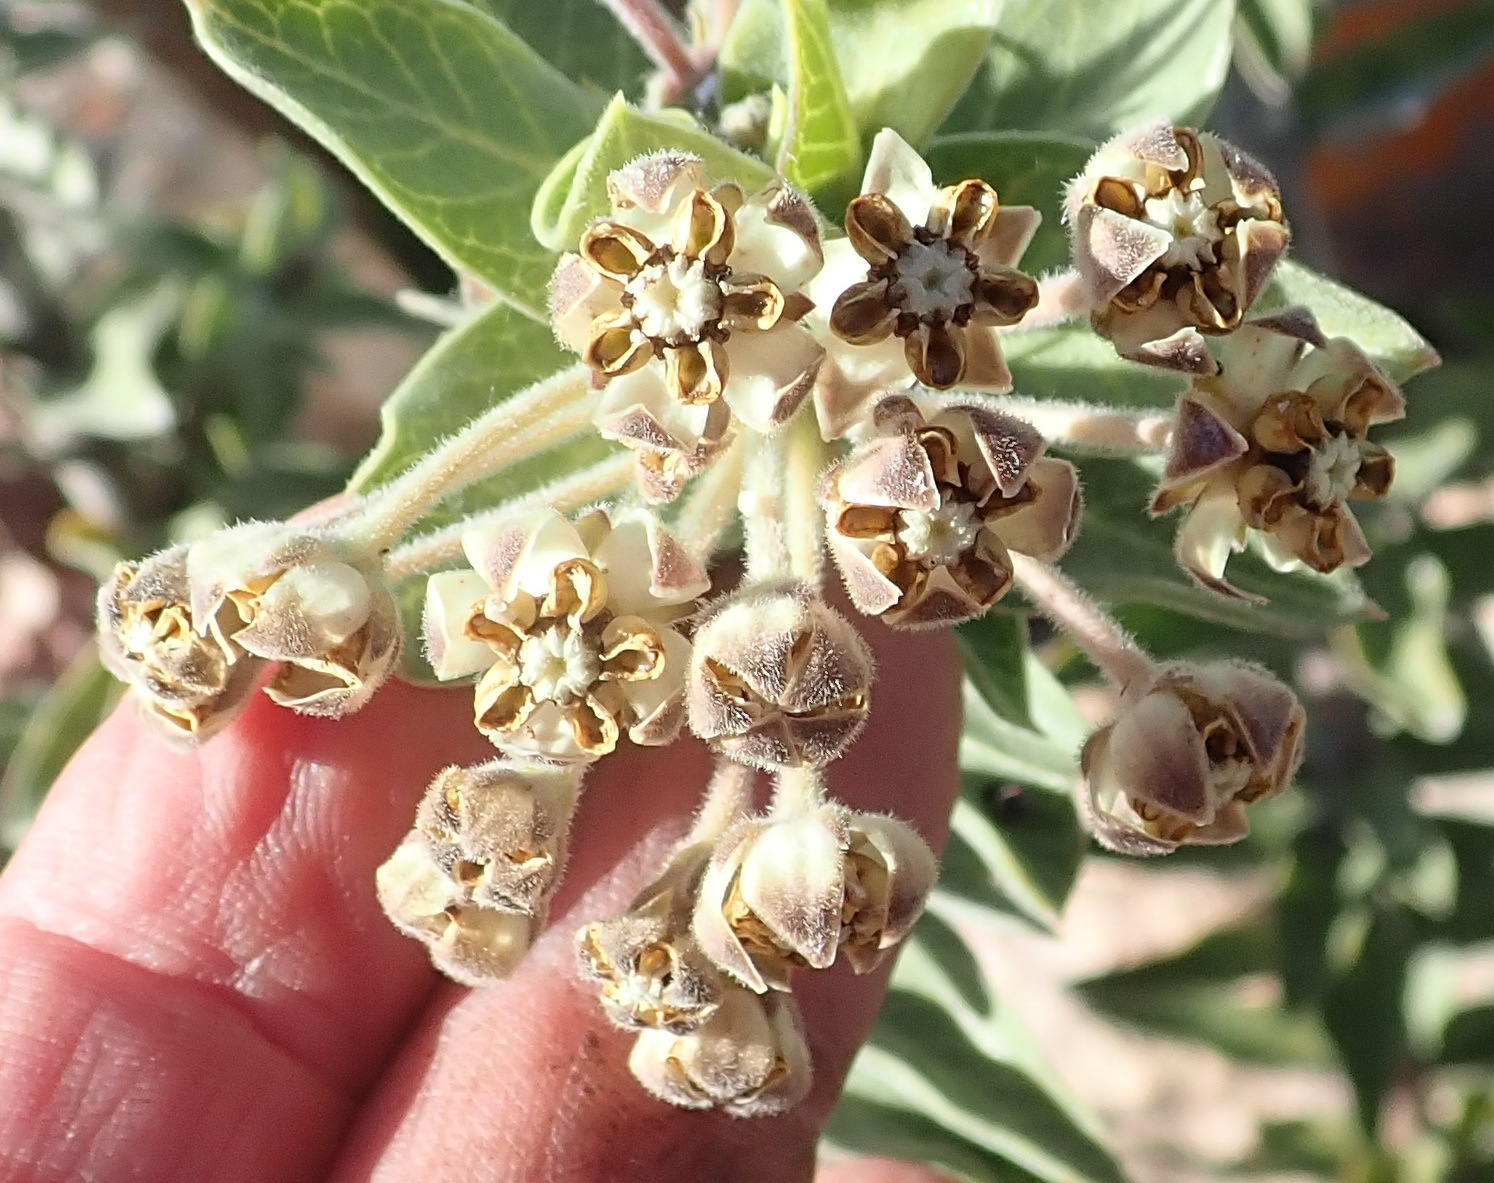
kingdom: Plantae
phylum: Tracheophyta
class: Magnoliopsida
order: Gentianales
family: Apocynaceae
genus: Gomphocarpus
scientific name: Gomphocarpus cancellatus
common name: Wild cotton
